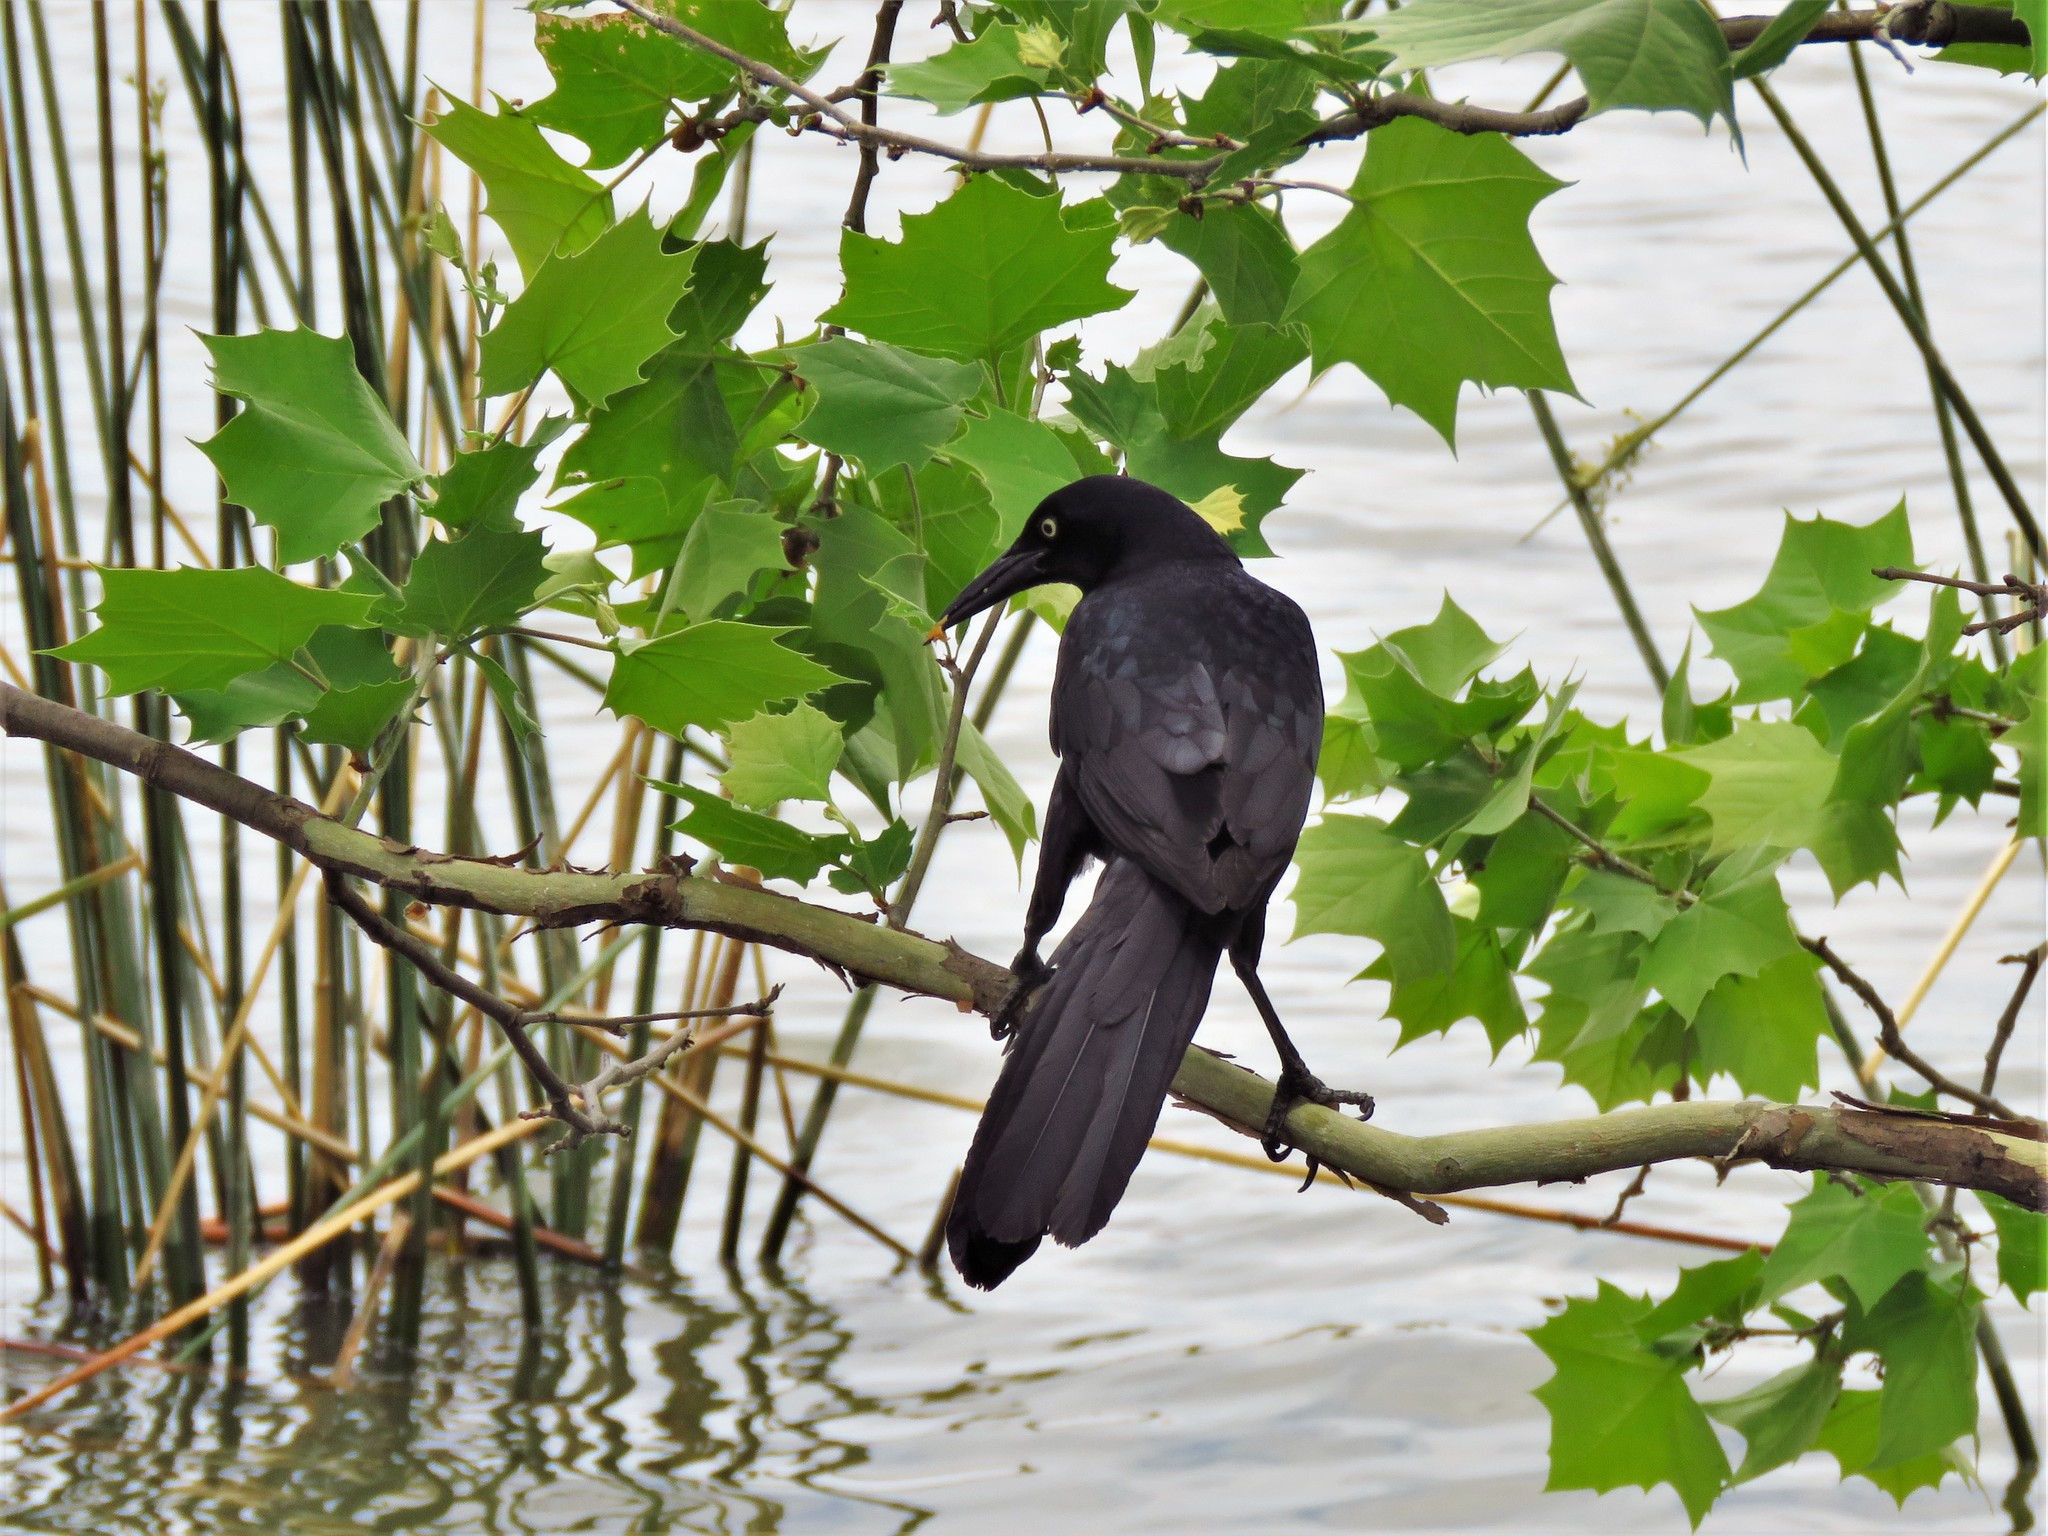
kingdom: Animalia
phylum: Chordata
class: Aves
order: Passeriformes
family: Icteridae
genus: Quiscalus
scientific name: Quiscalus mexicanus
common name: Great-tailed grackle
